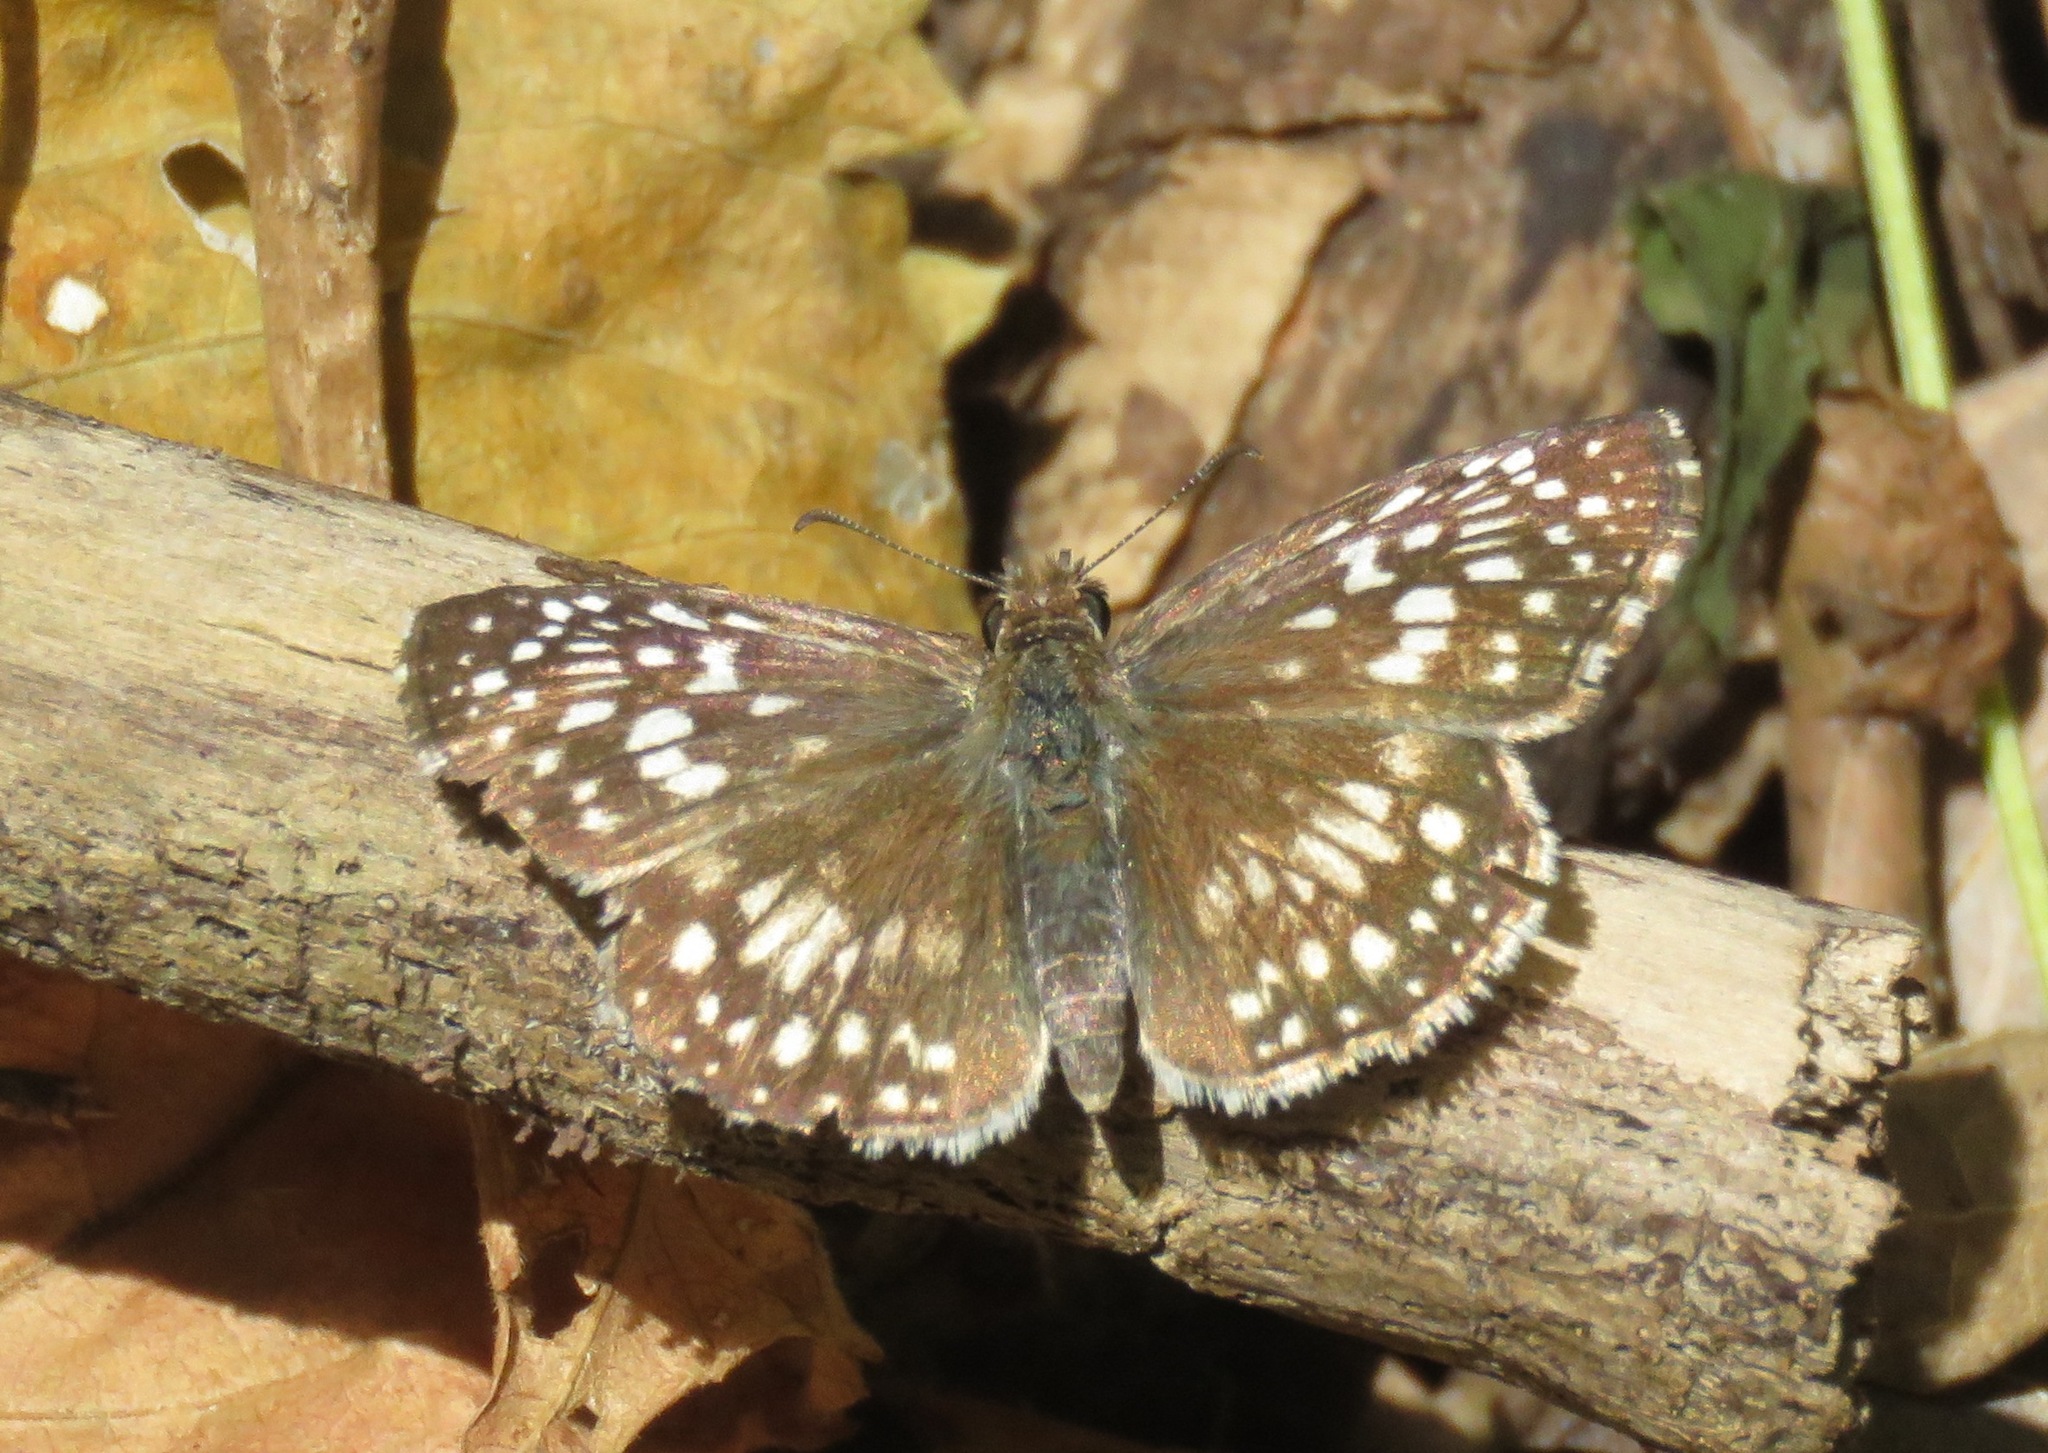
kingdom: Animalia
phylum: Arthropoda
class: Insecta
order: Lepidoptera
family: Hesperiidae
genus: Pyrgus
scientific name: Pyrgus oileus
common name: Tropical checkered-skipper
